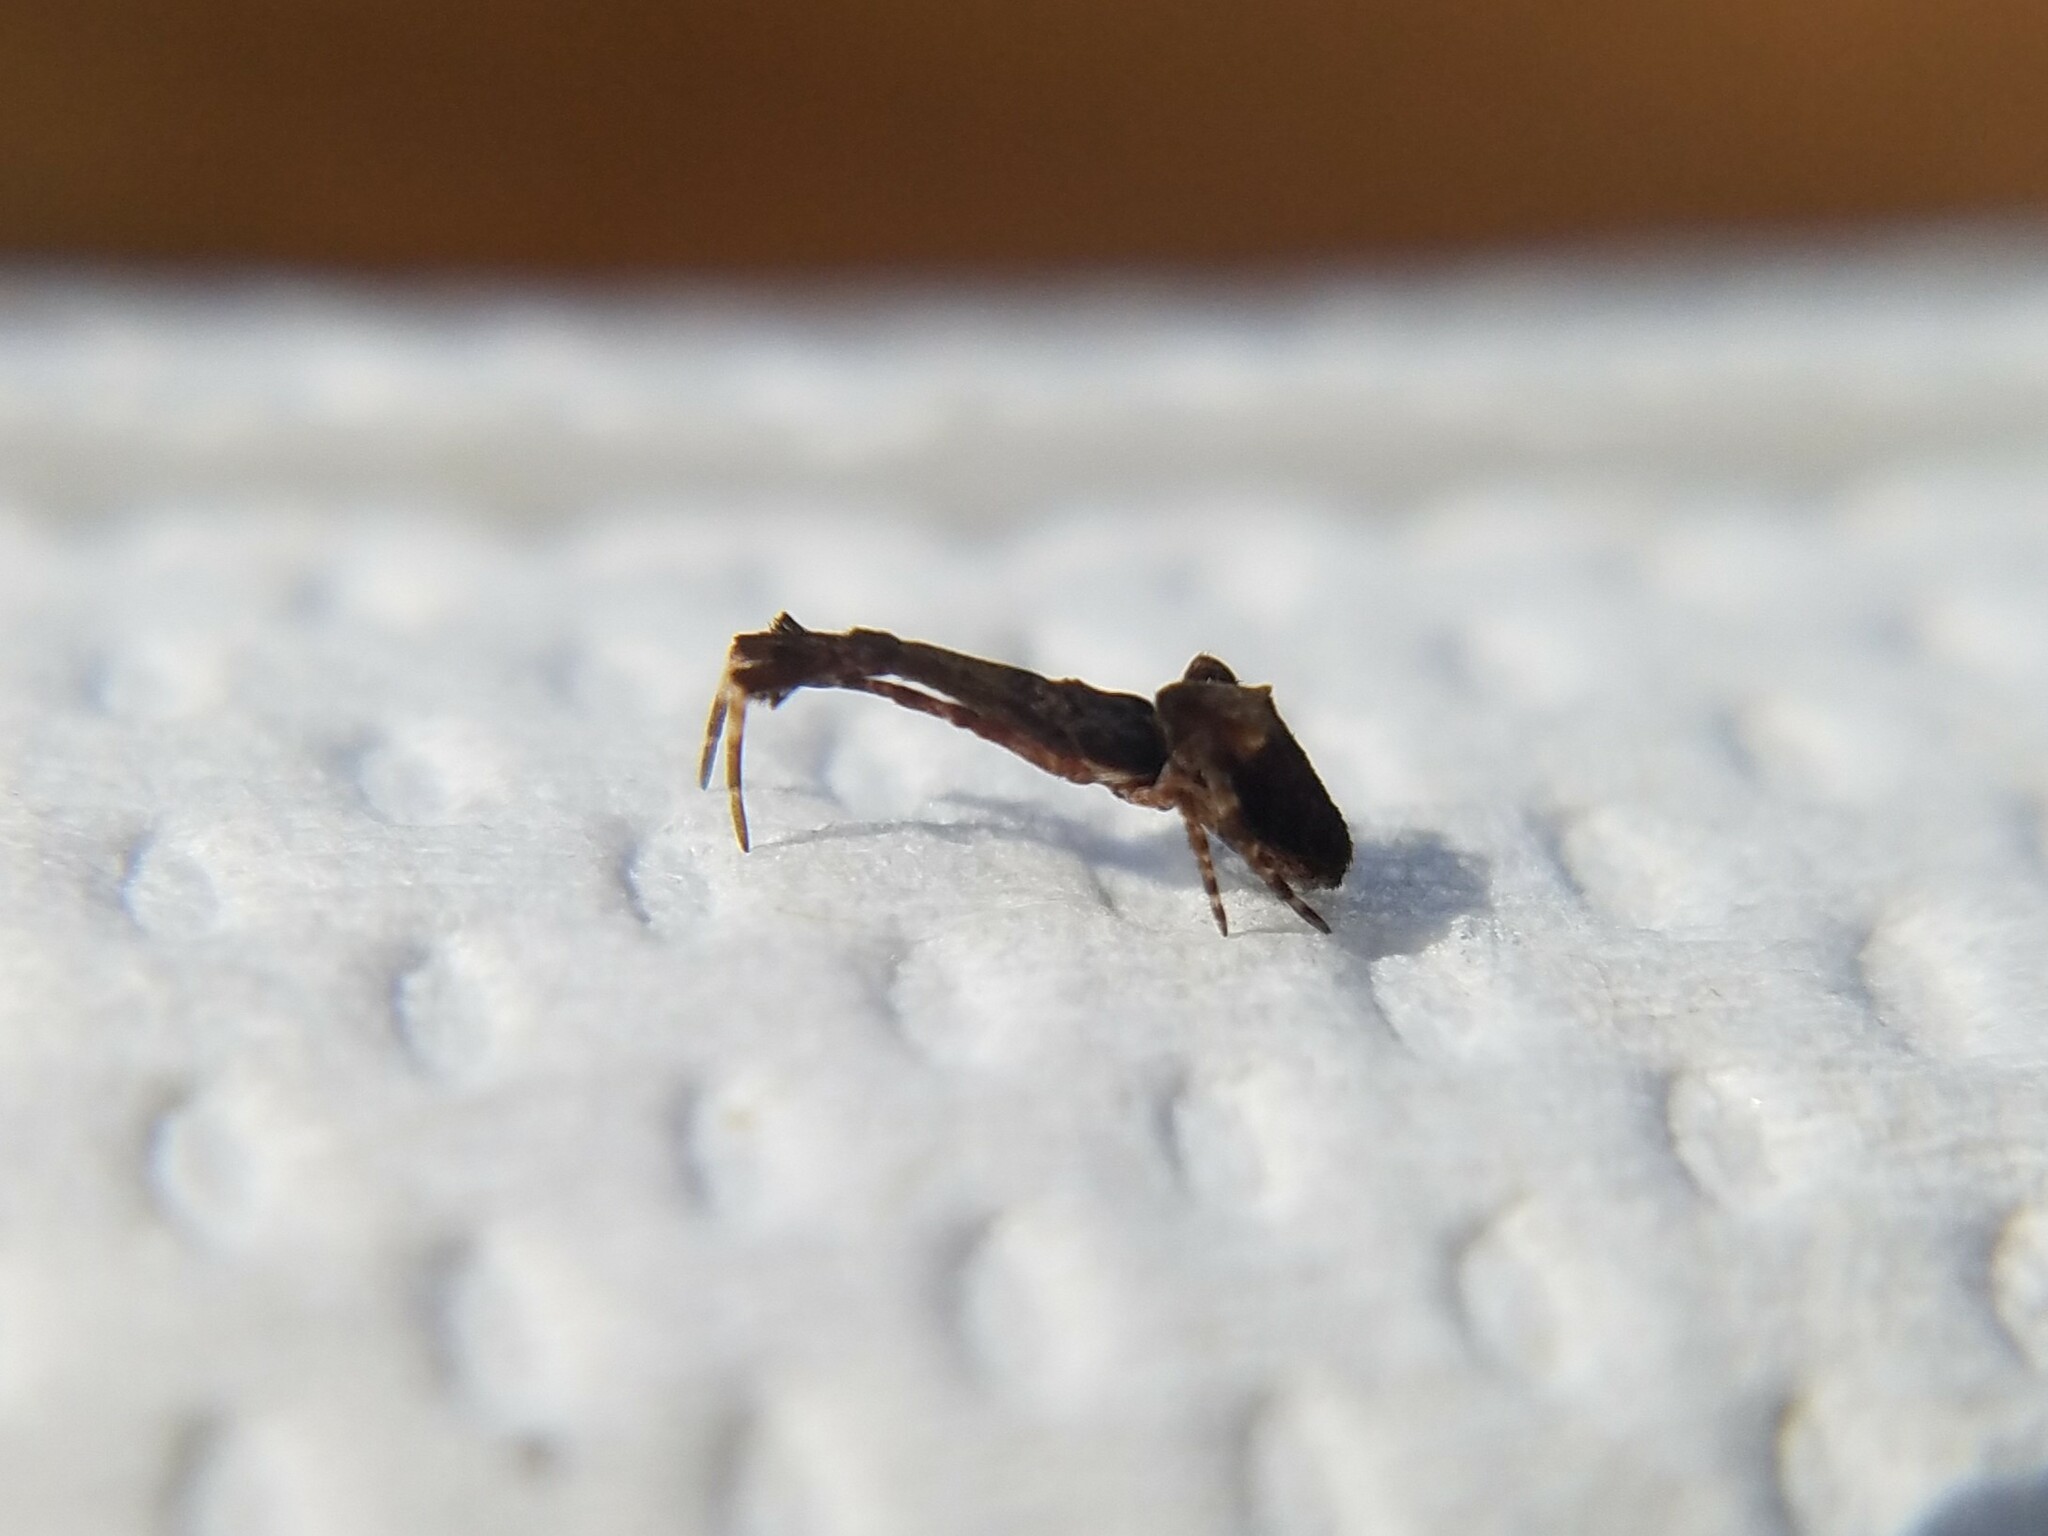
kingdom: Animalia
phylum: Arthropoda
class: Arachnida
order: Araneae
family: Uloboridae
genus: Uloborus
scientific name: Uloborus glomosus
